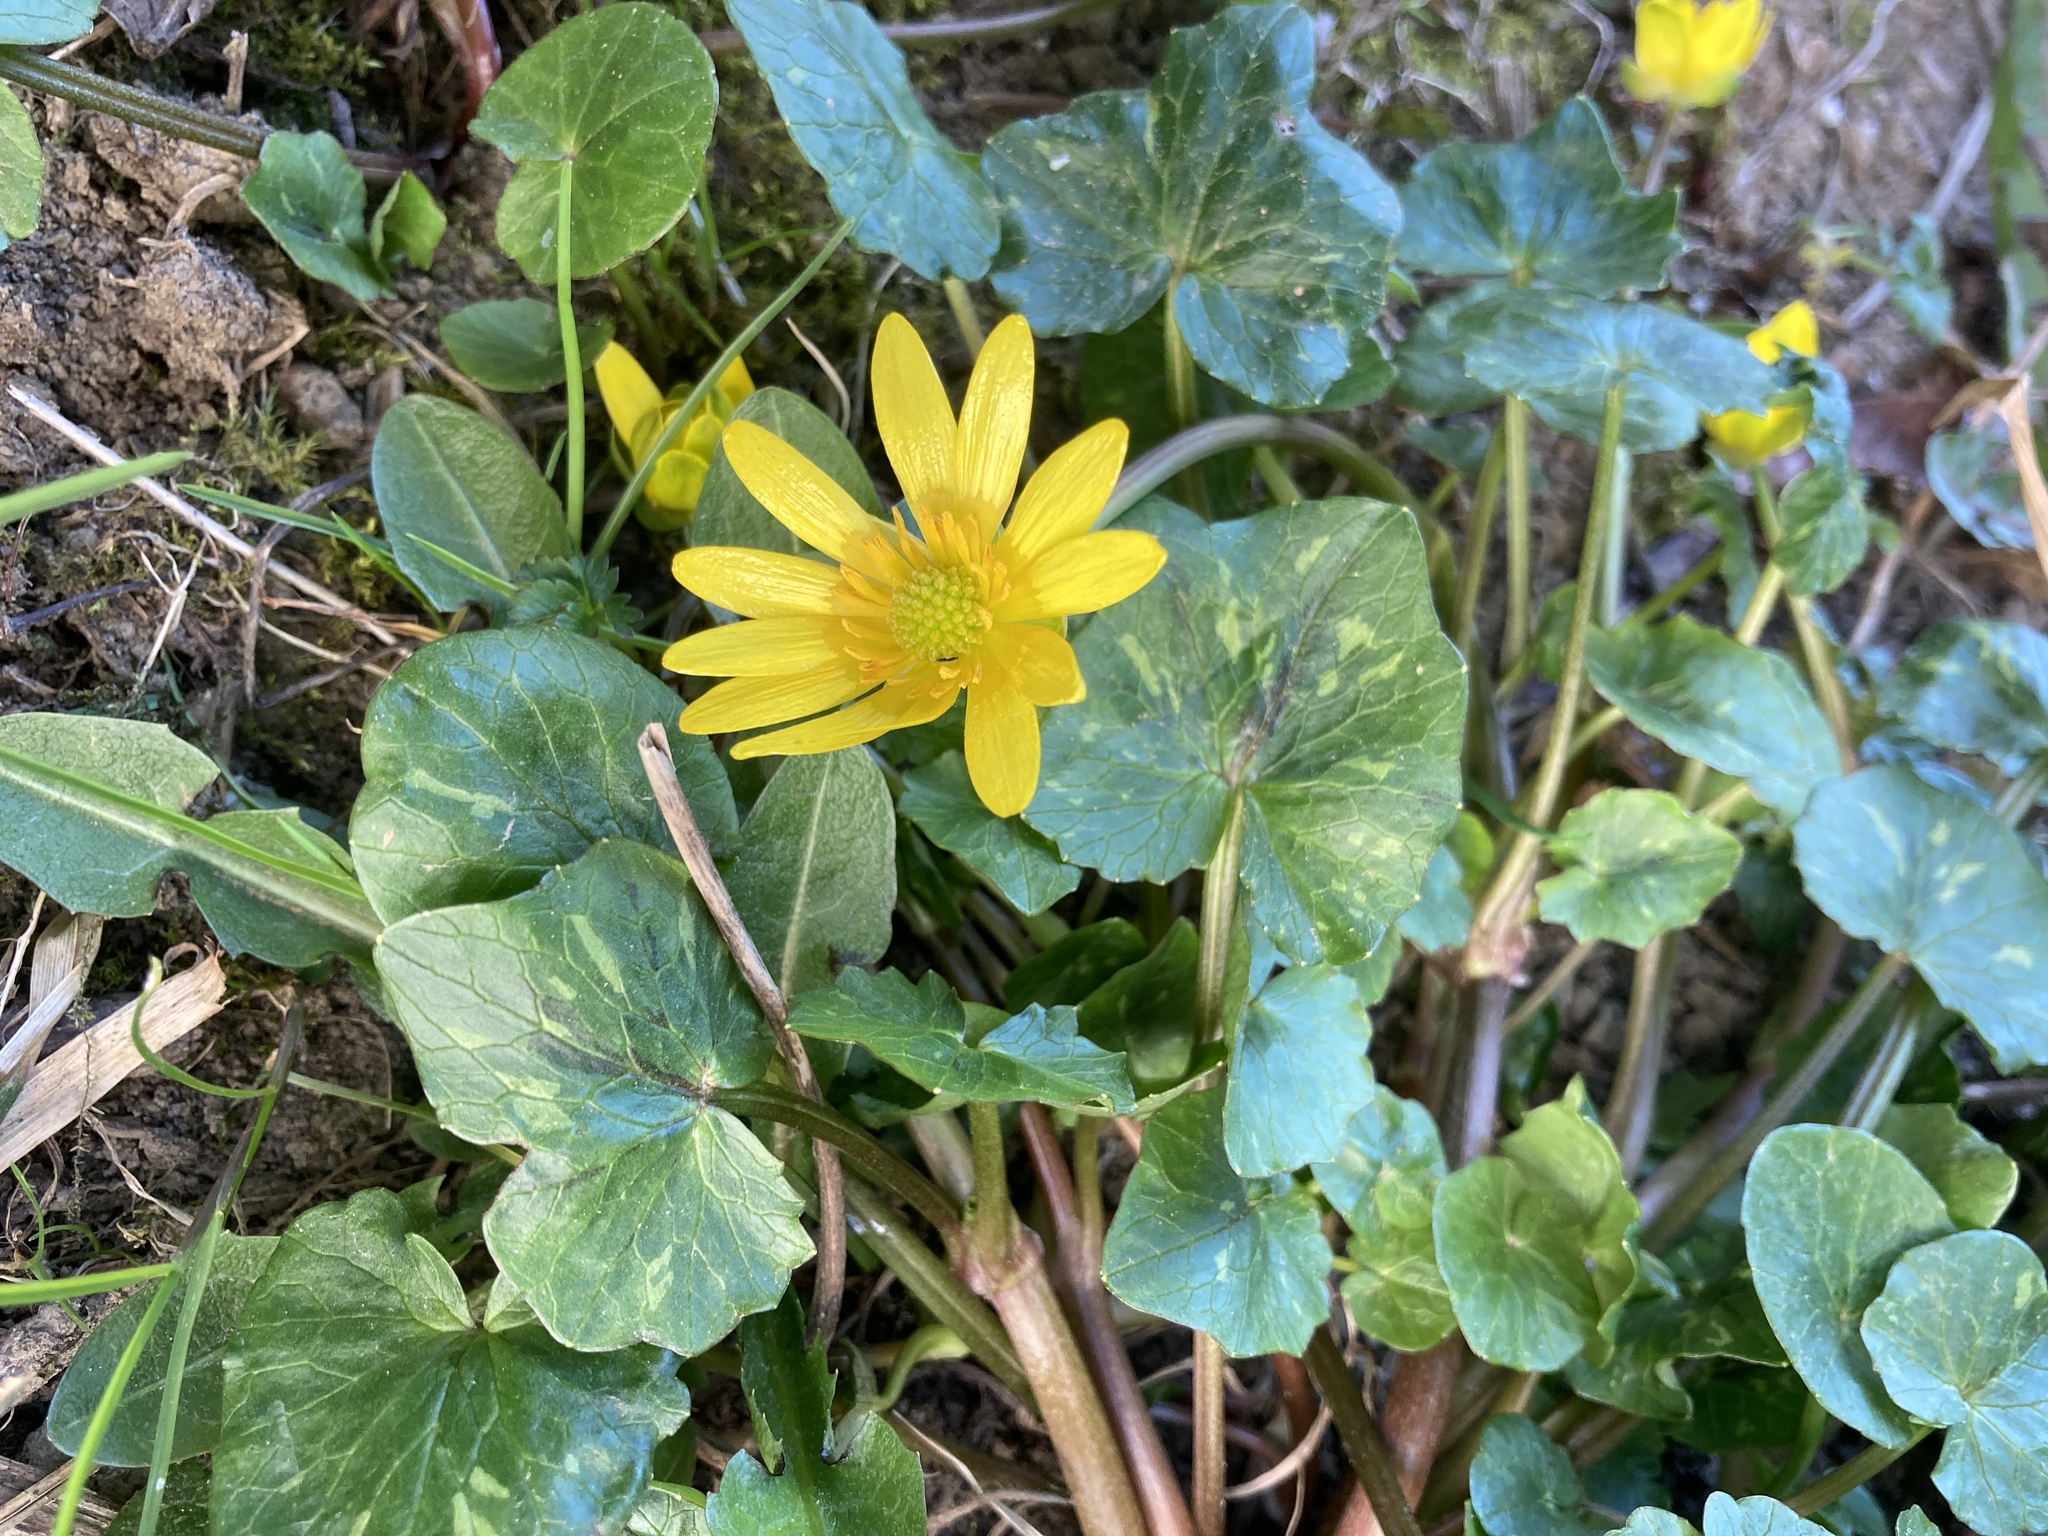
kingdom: Plantae
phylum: Tracheophyta
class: Magnoliopsida
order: Ranunculales
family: Ranunculaceae
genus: Ficaria
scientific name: Ficaria verna
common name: Lesser celandine
